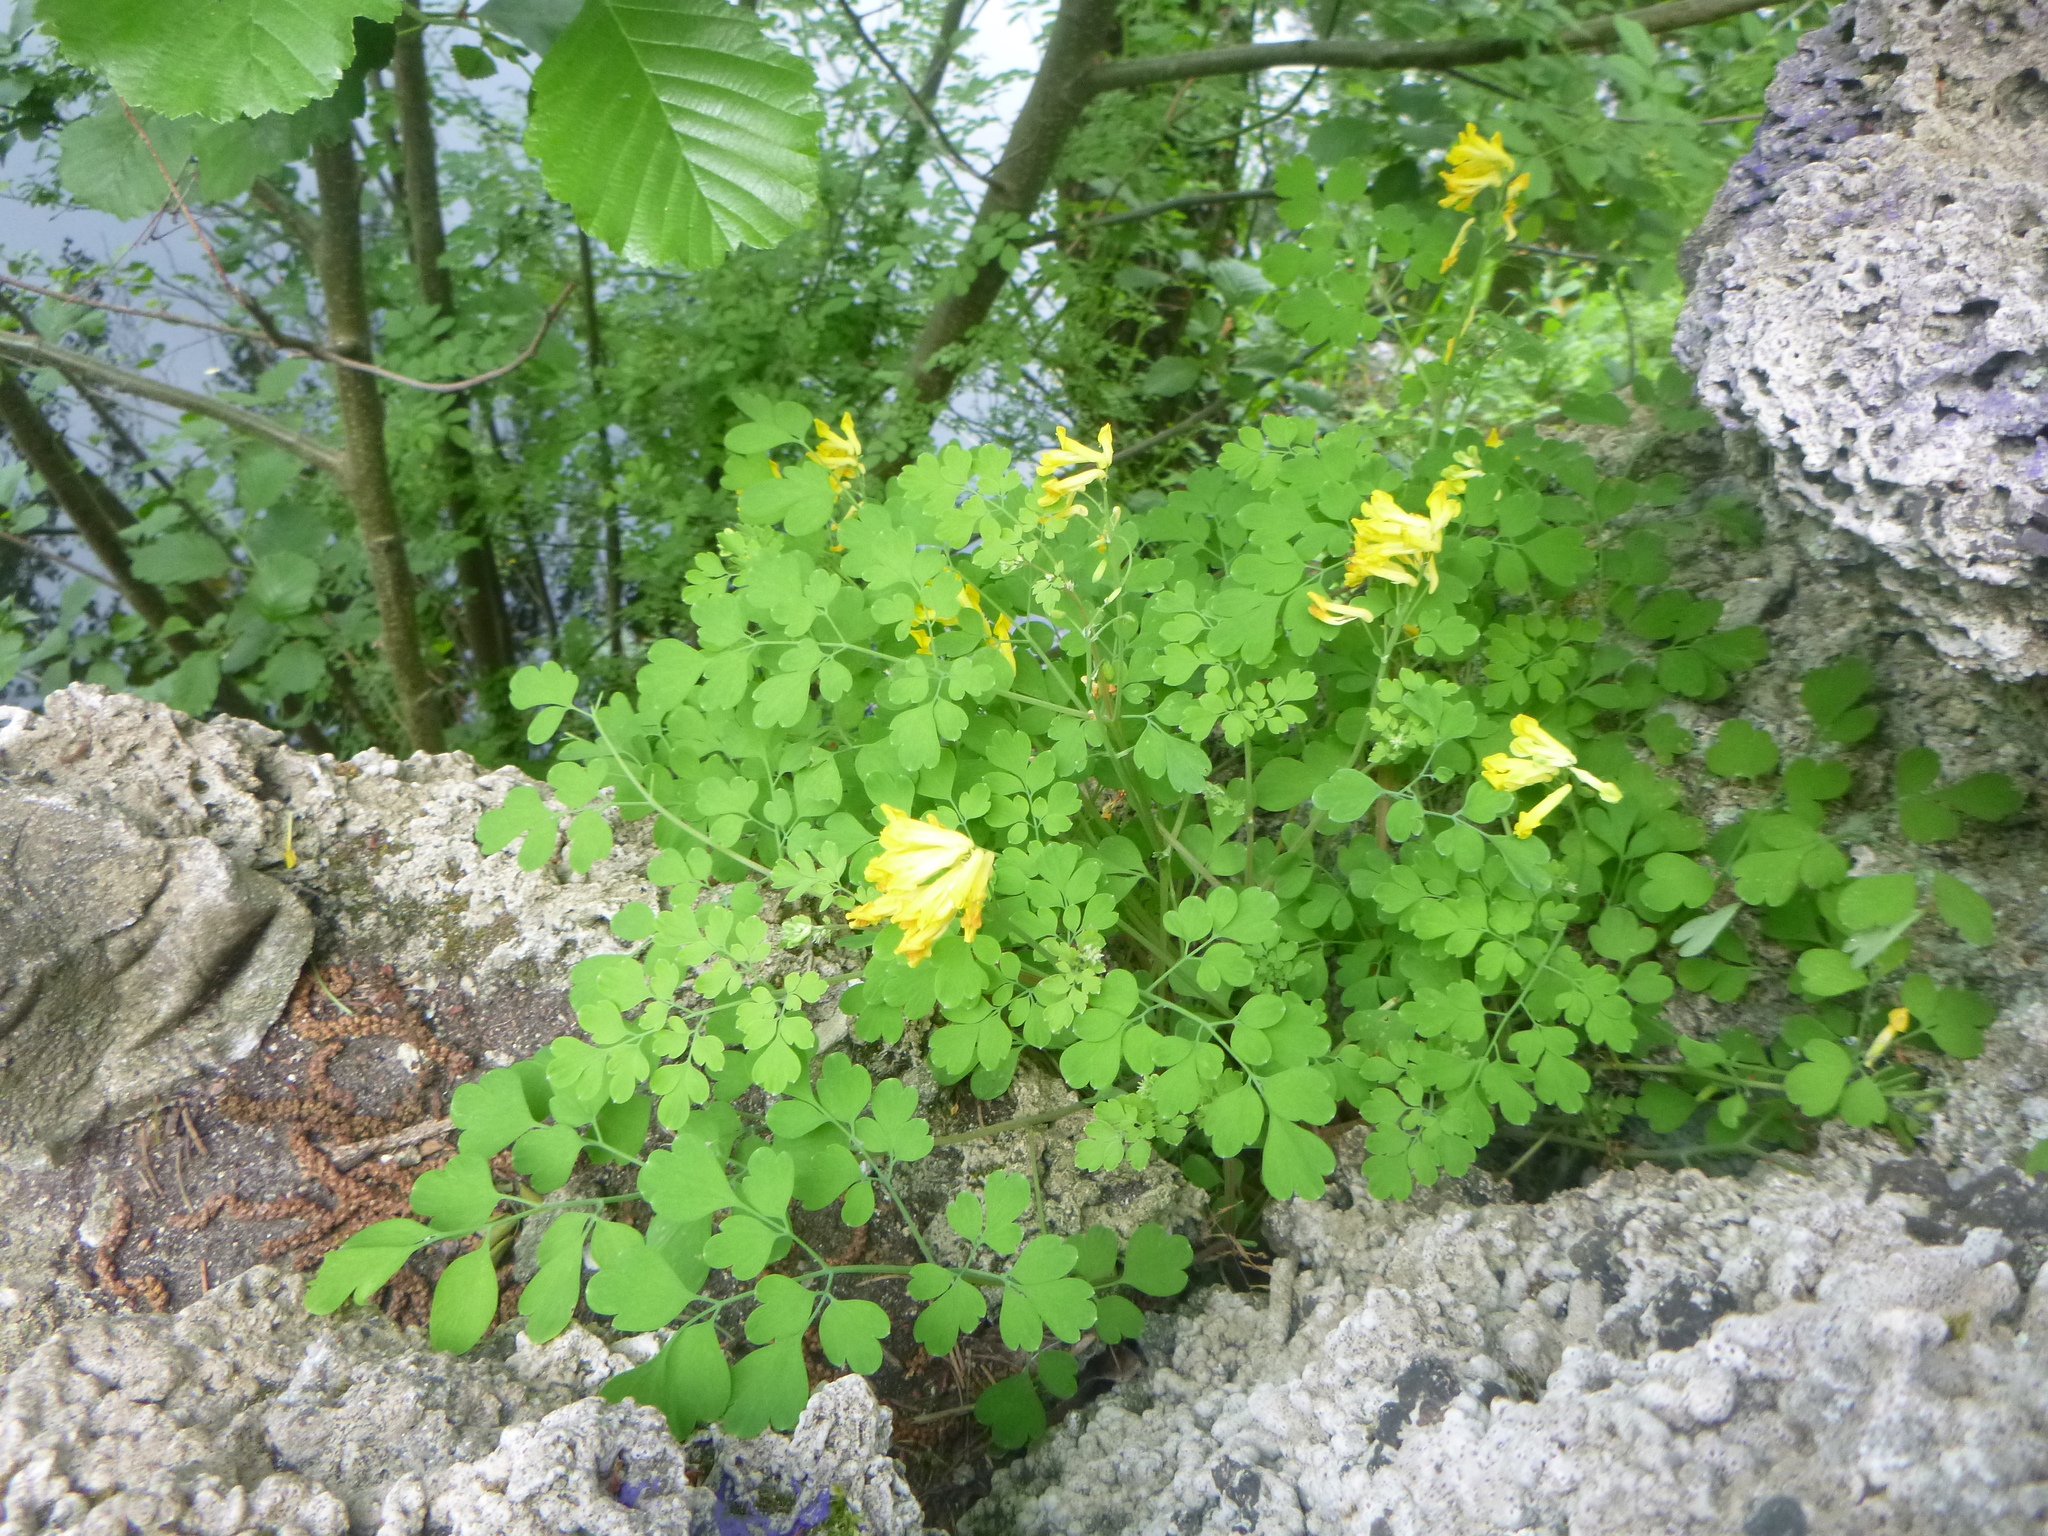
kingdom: Plantae
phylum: Tracheophyta
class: Magnoliopsida
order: Ranunculales
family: Papaveraceae
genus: Pseudofumaria
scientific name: Pseudofumaria lutea
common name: Yellow corydalis
